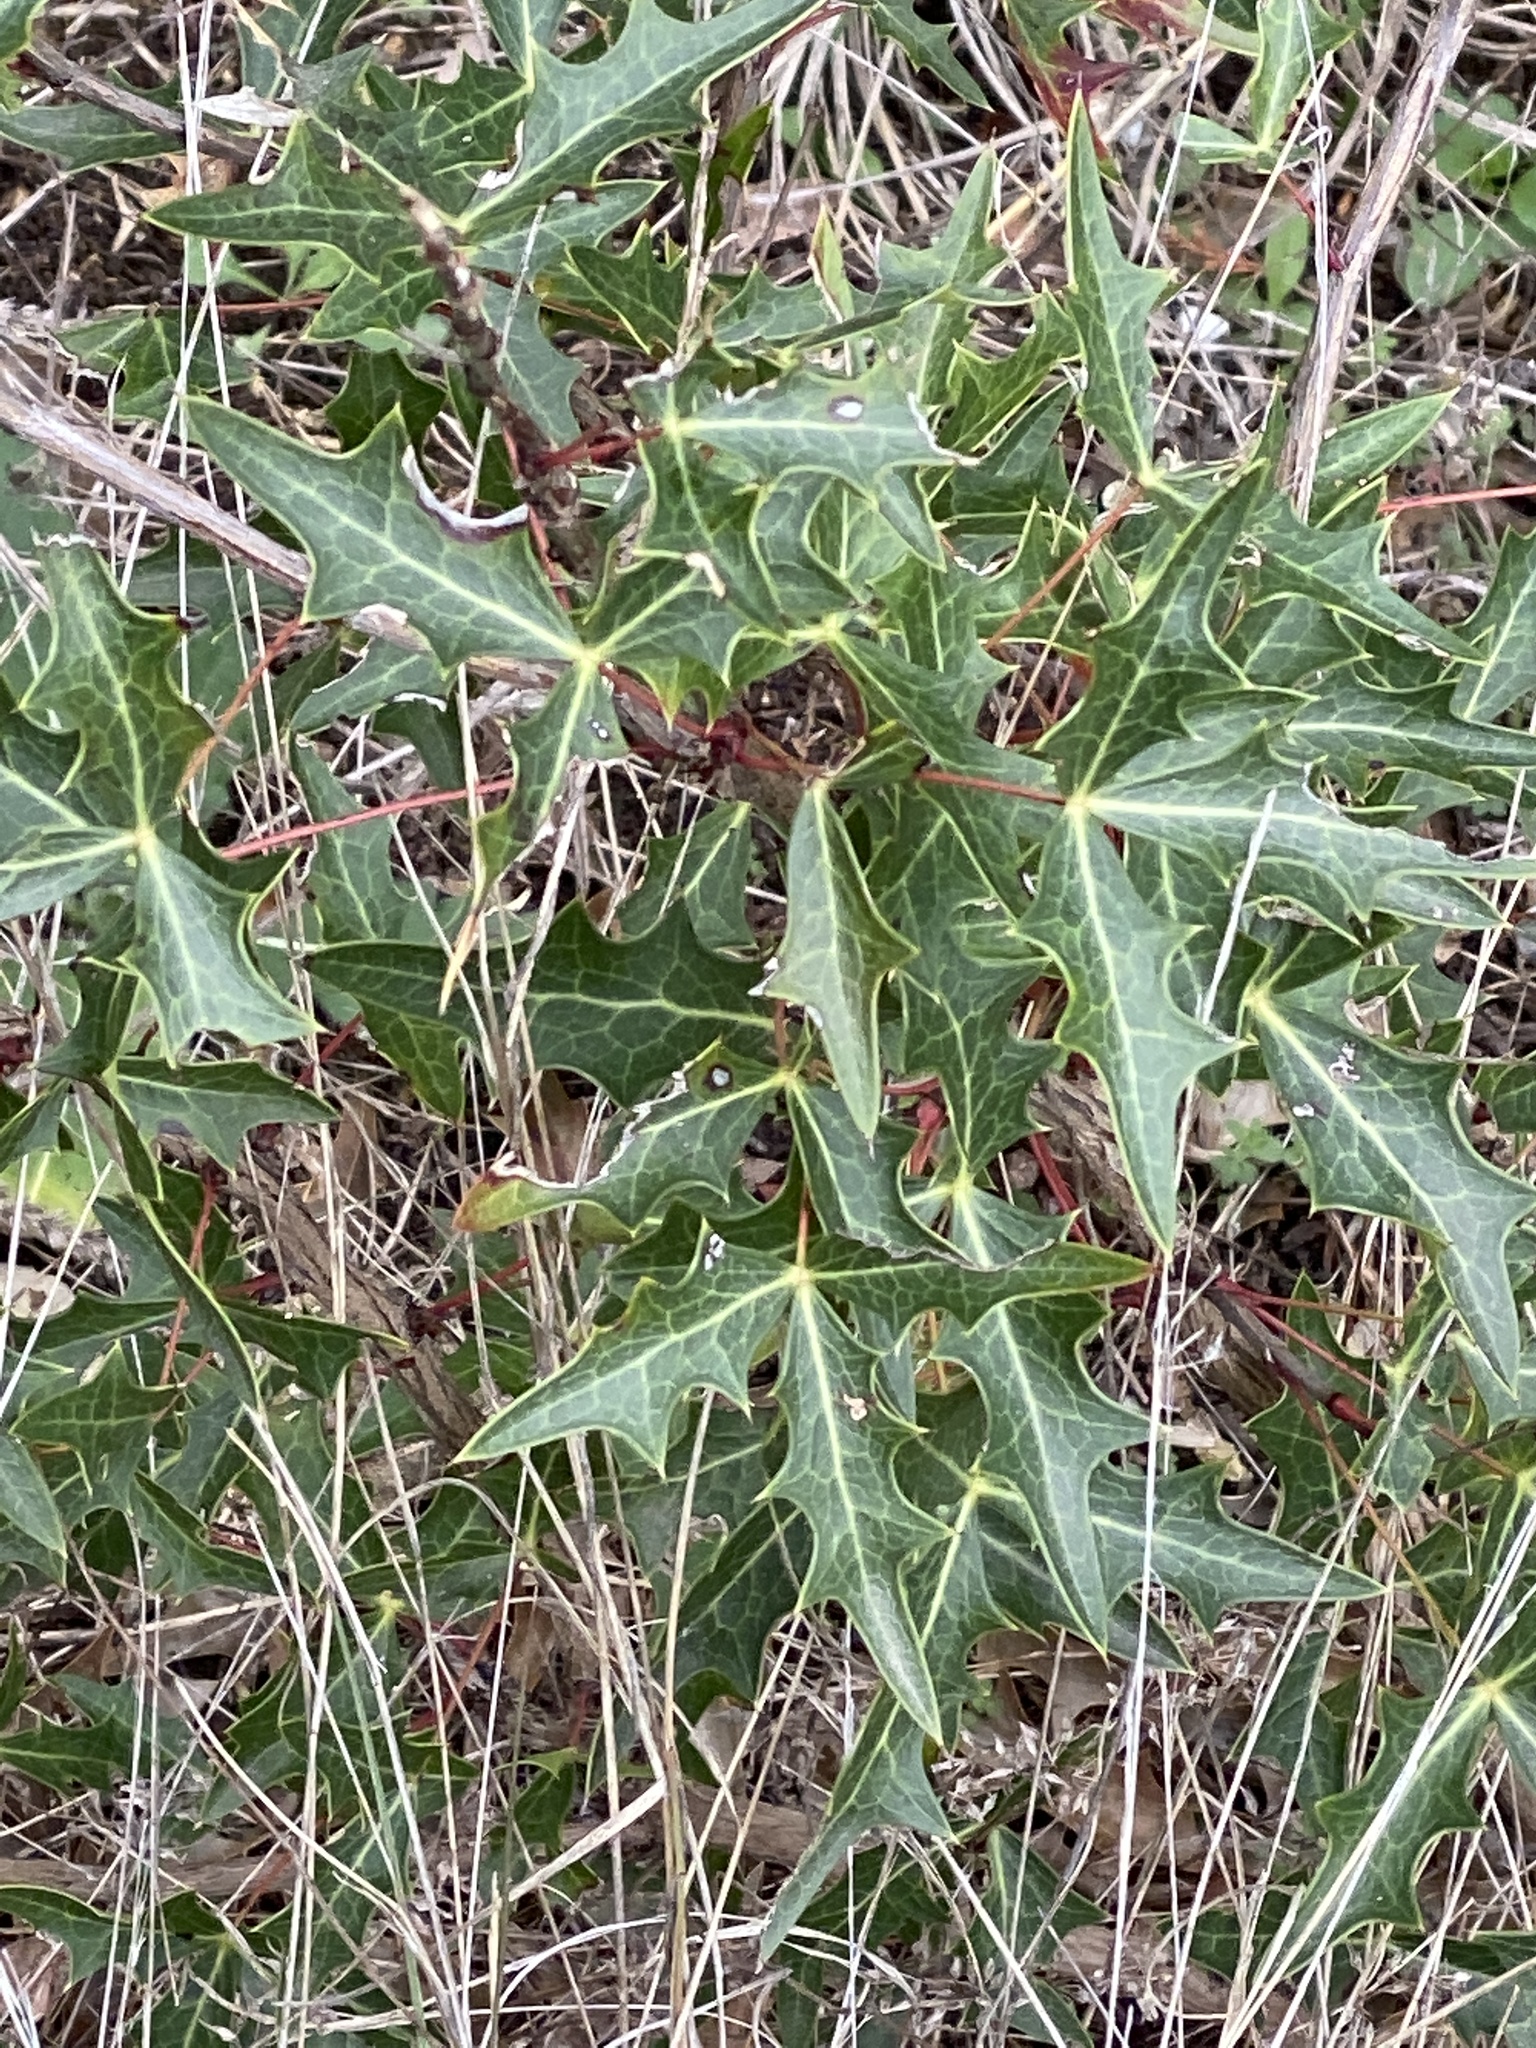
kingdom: Plantae
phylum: Tracheophyta
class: Magnoliopsida
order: Ranunculales
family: Berberidaceae
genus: Alloberberis
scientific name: Alloberberis trifoliolata
